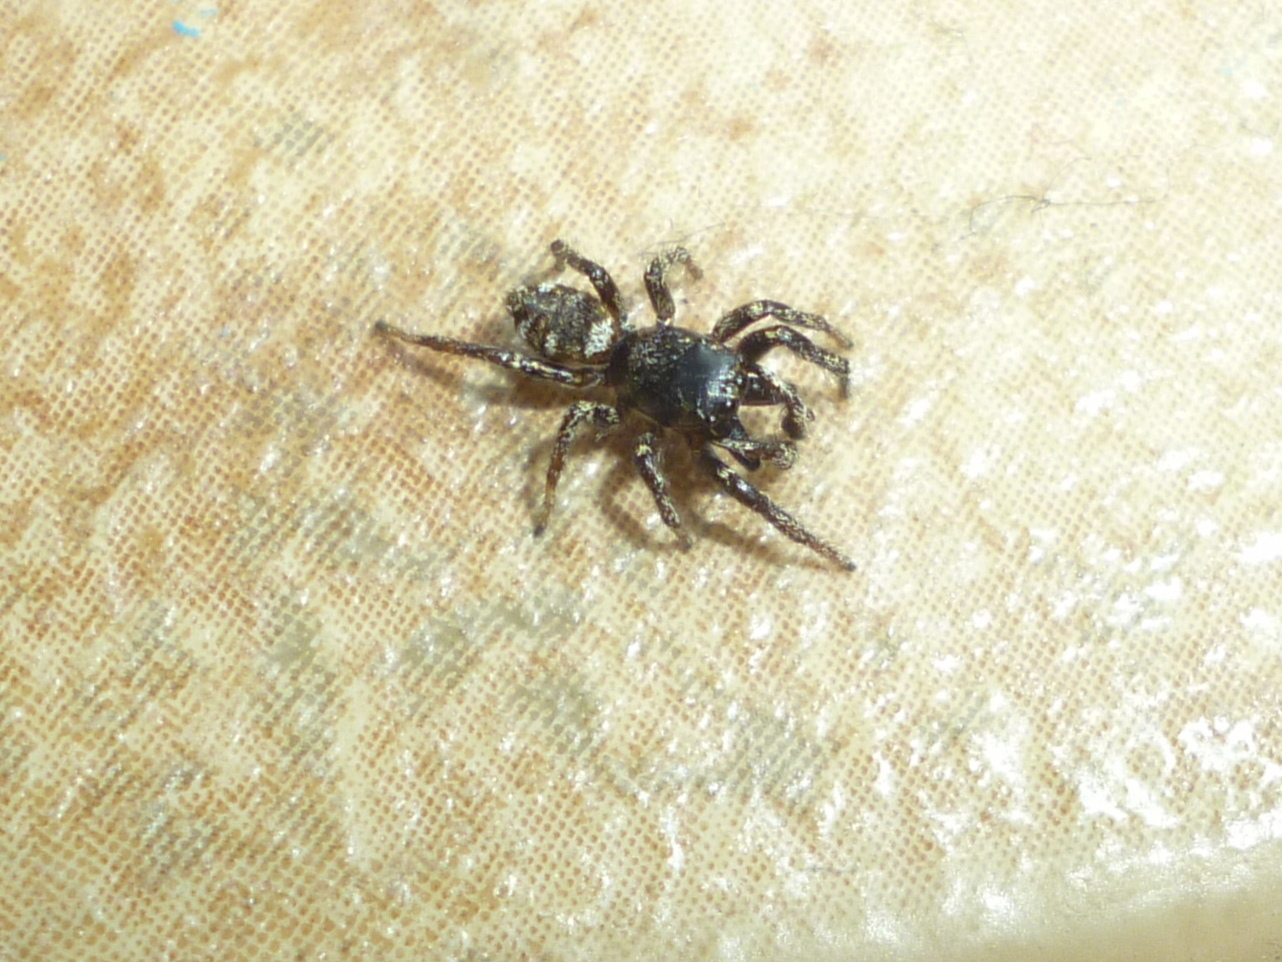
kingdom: Animalia
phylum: Arthropoda
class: Arachnida
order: Araneae
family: Salticidae
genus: Salticus
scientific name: Salticus scenicus
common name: Zebra jumper
